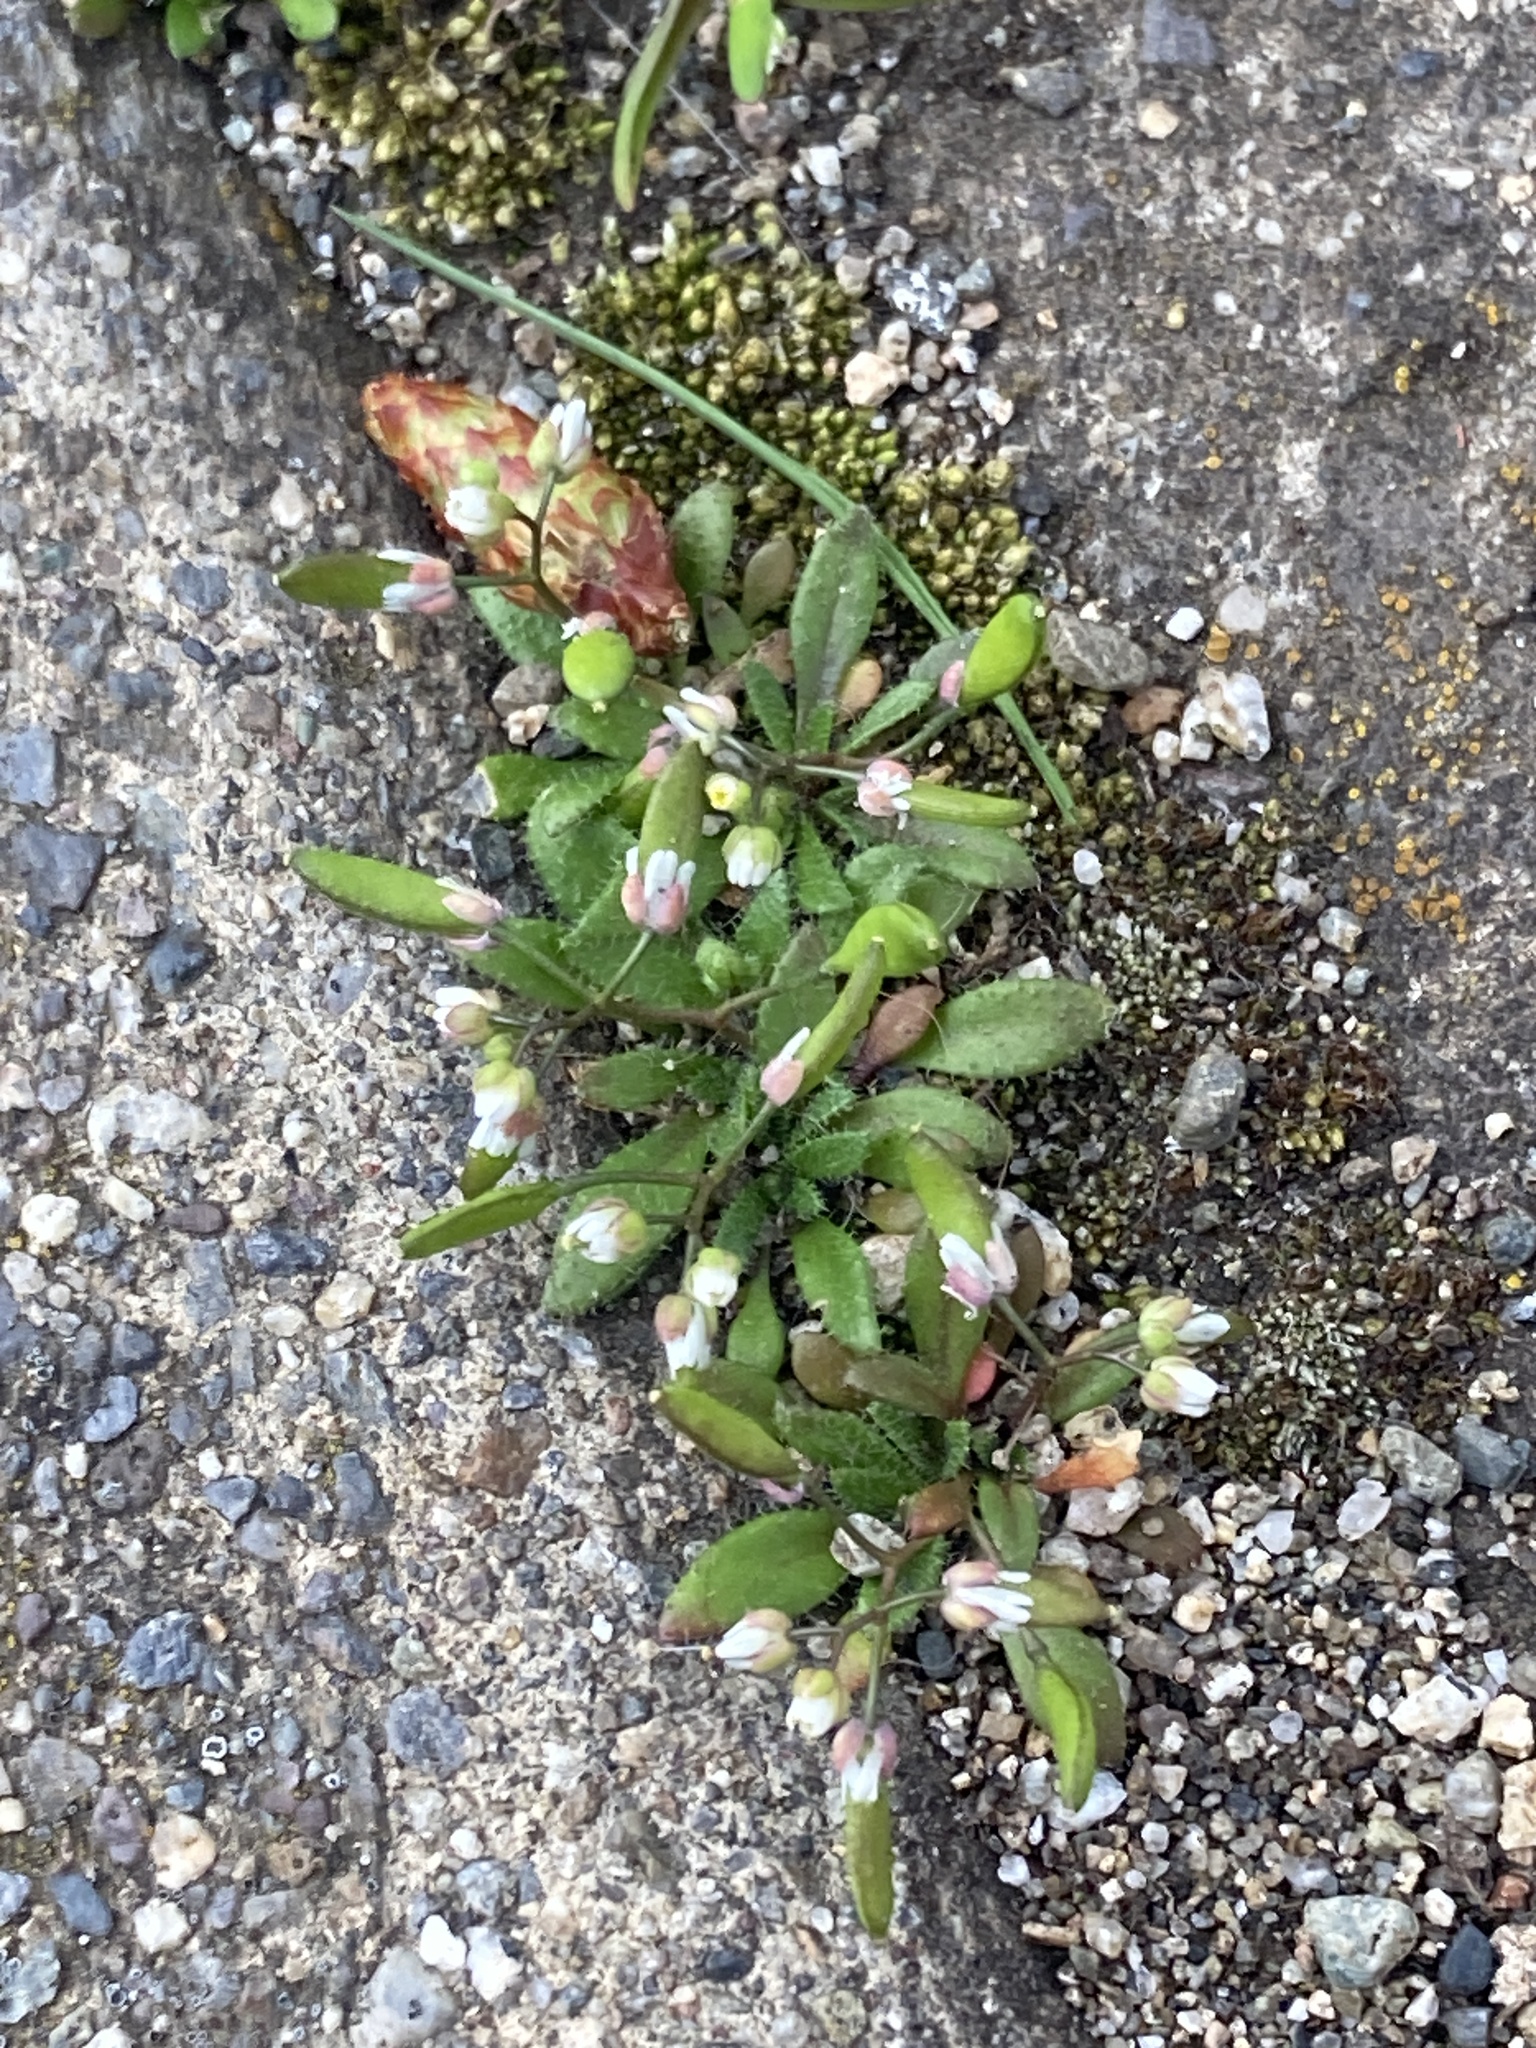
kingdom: Plantae
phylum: Tracheophyta
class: Magnoliopsida
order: Brassicales
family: Brassicaceae
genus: Draba
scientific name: Draba verna
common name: Spring draba
